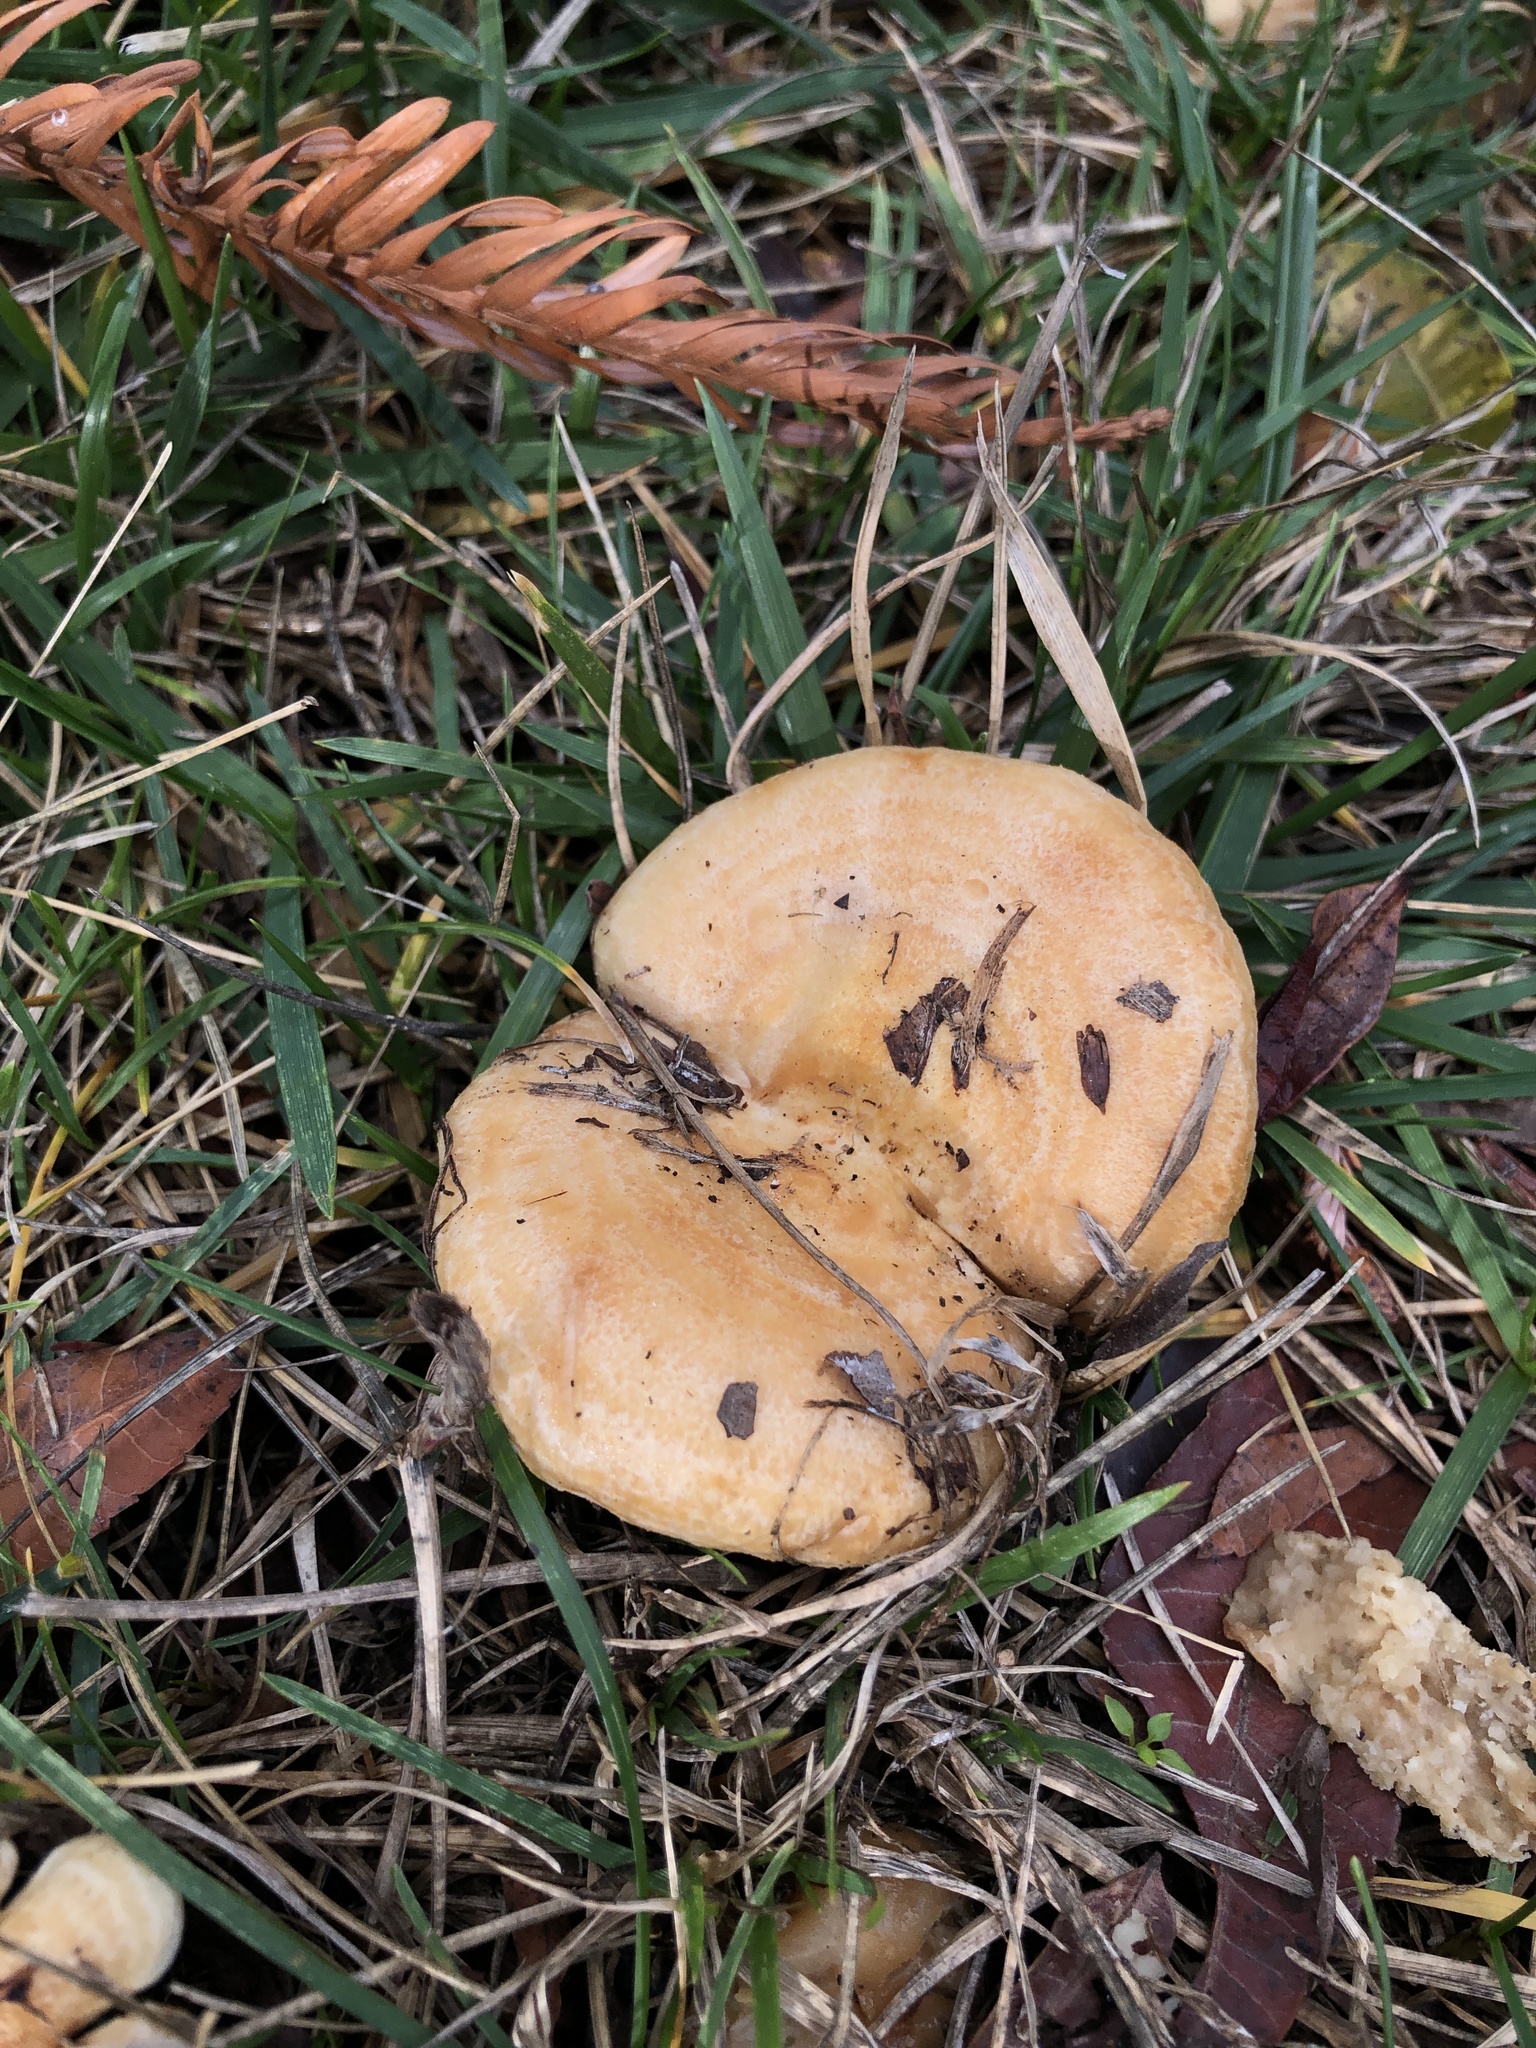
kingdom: Fungi
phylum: Basidiomycota
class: Agaricomycetes
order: Russulales
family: Russulaceae
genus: Lactarius
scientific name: Lactarius alnicola
